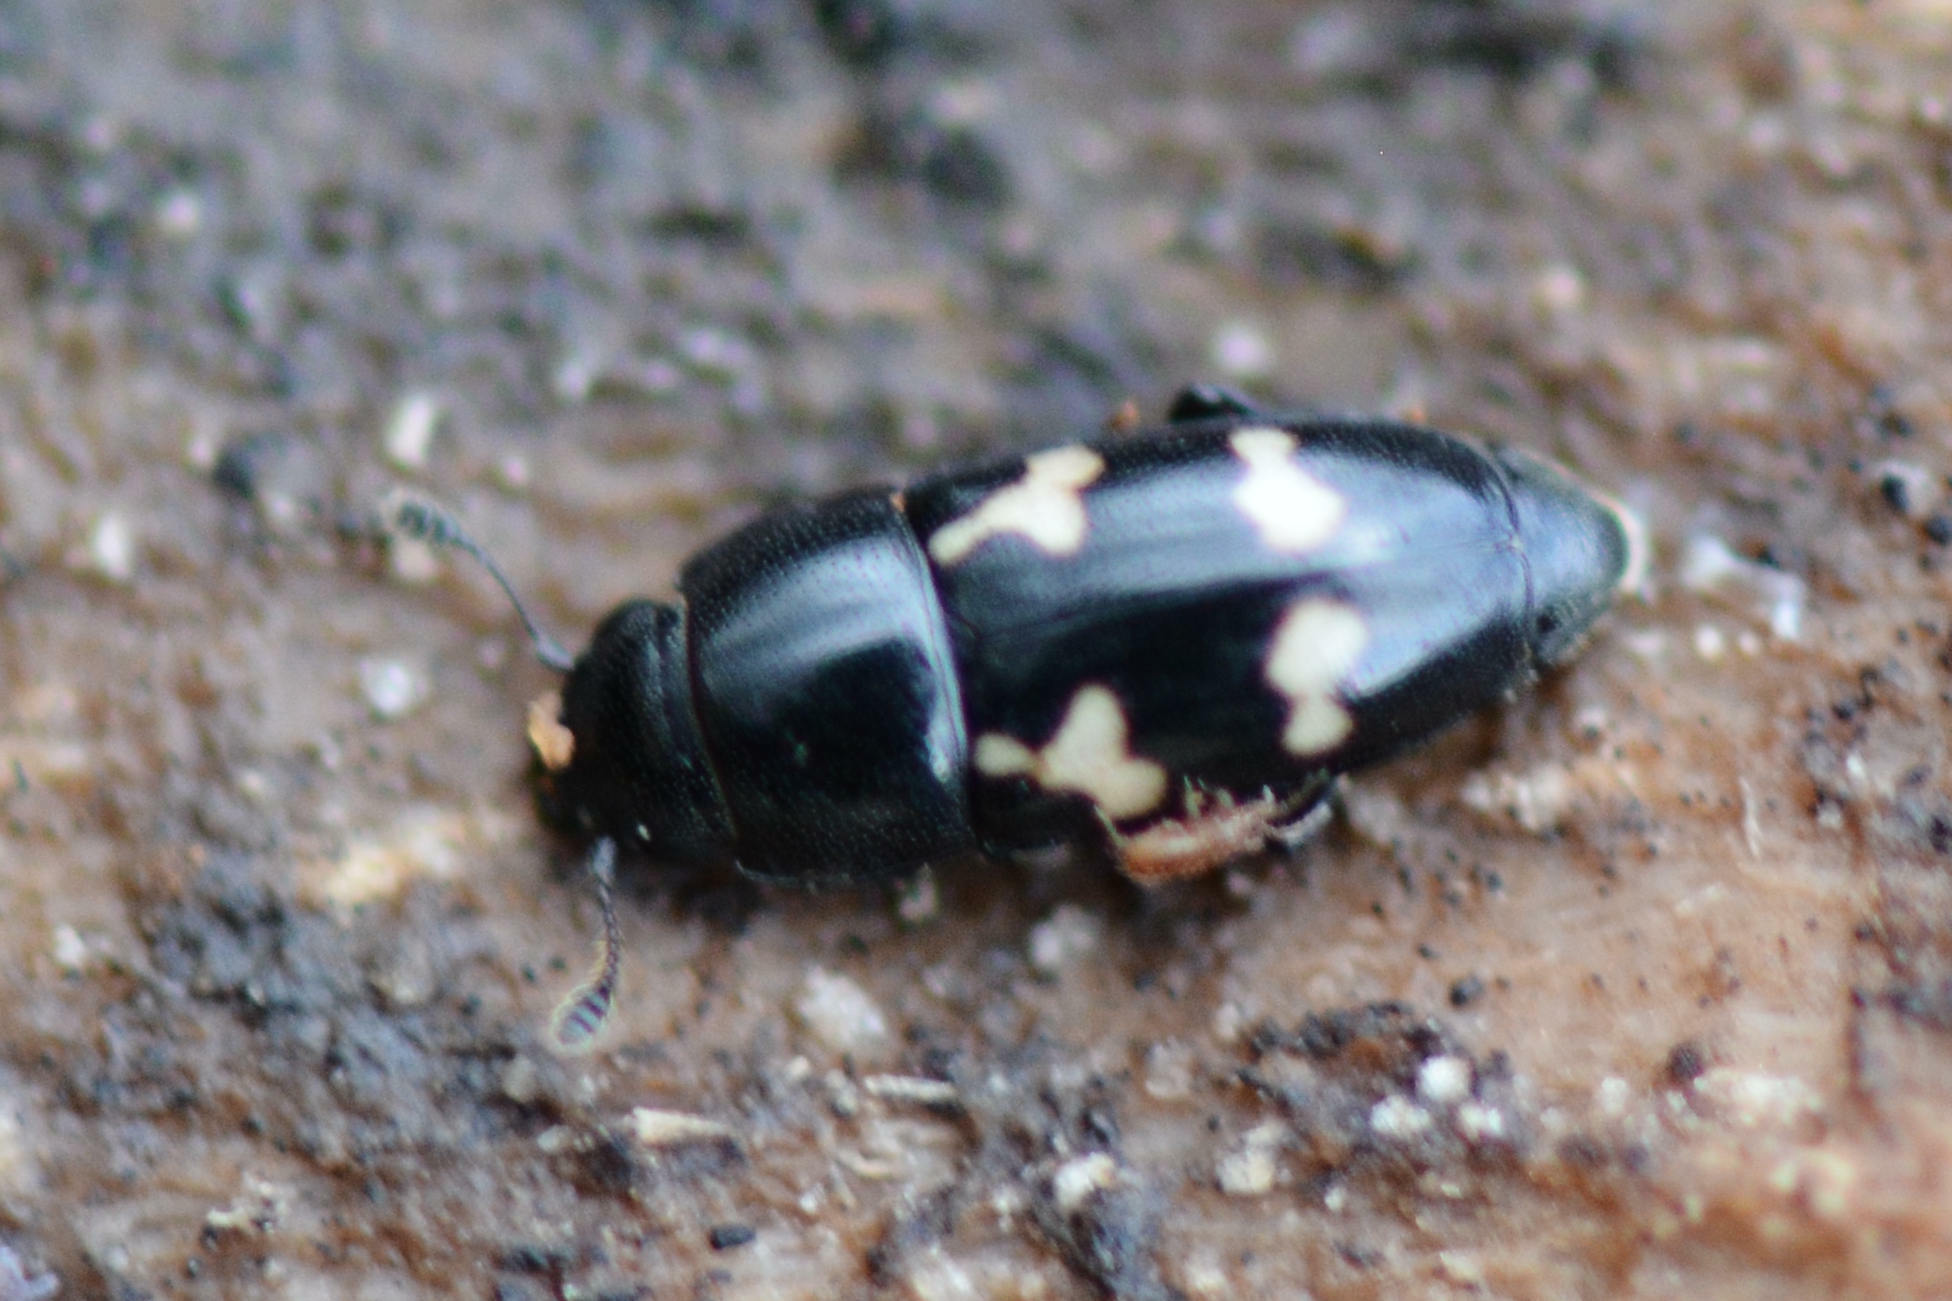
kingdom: Animalia
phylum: Arthropoda
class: Insecta
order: Coleoptera
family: Nitidulidae
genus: Glischrochilus
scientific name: Glischrochilus quadriguttatus
